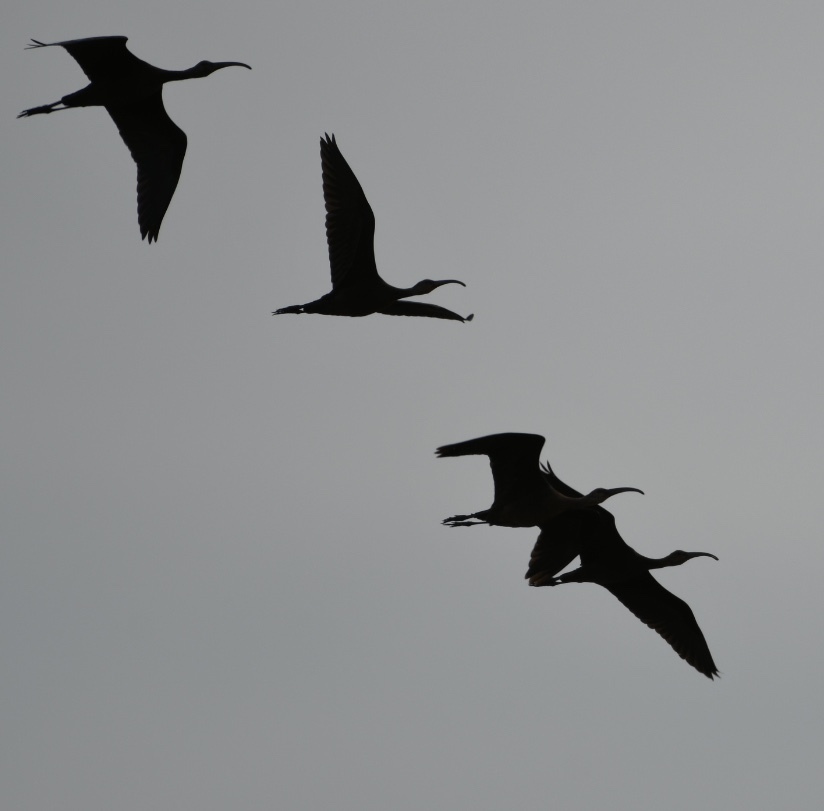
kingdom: Animalia
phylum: Chordata
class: Aves
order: Pelecaniformes
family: Threskiornithidae
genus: Plegadis
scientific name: Plegadis chihi
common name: White-faced ibis
